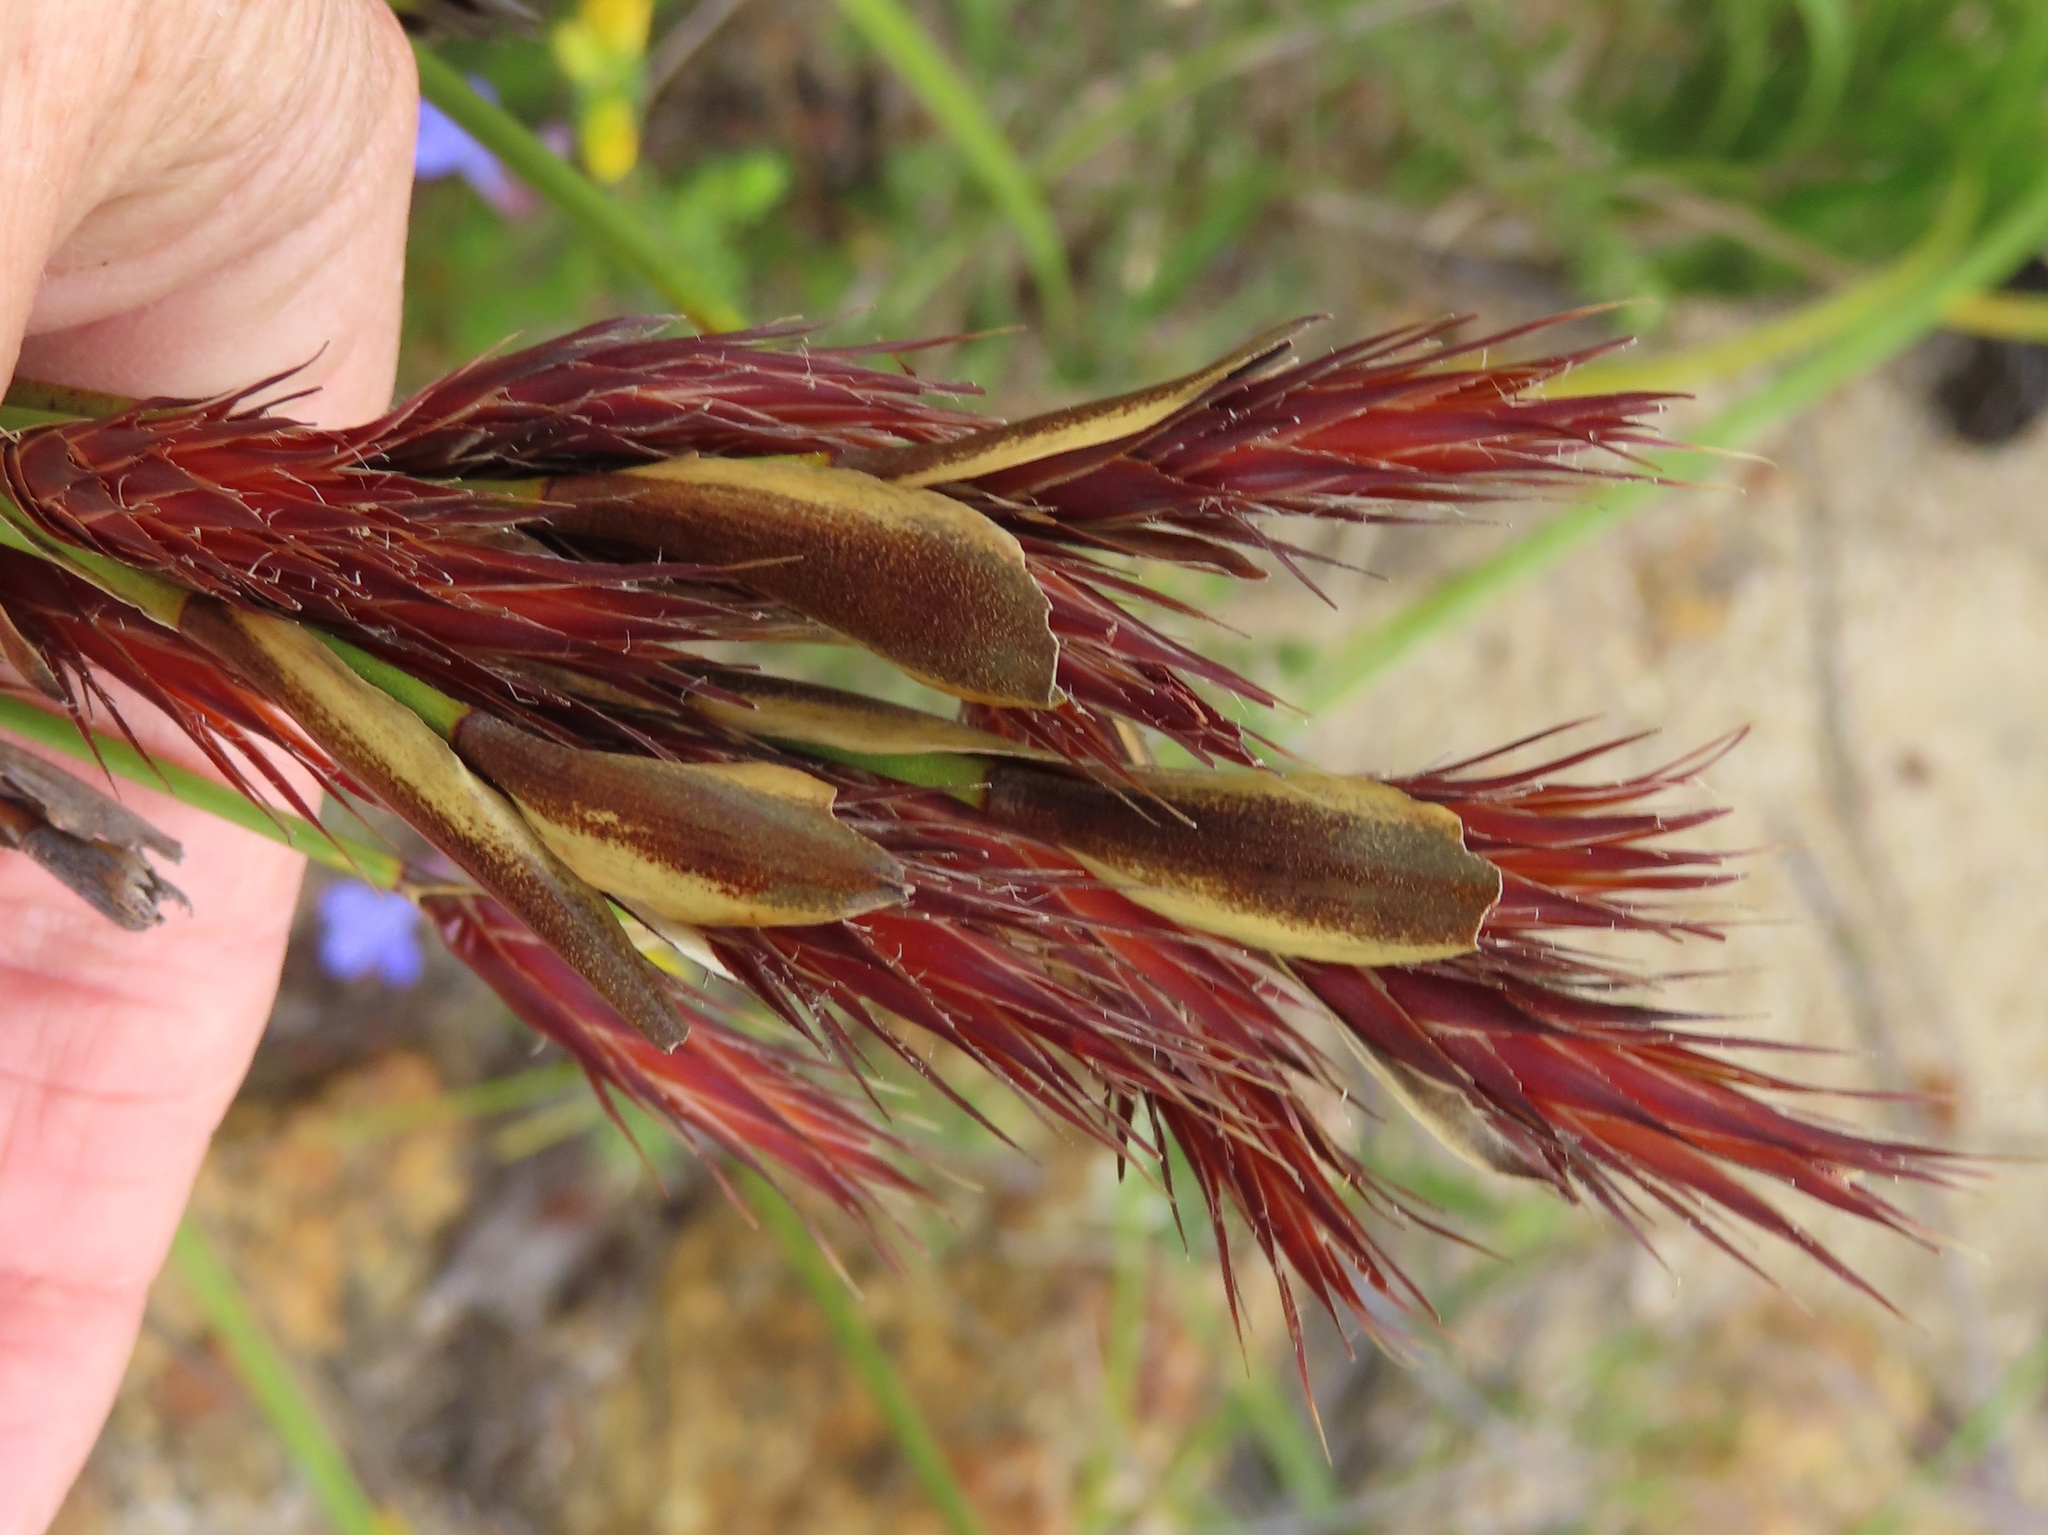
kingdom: Plantae
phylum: Tracheophyta
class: Liliopsida
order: Poales
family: Restionaceae
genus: Hypodiscus
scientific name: Hypodiscus aristatus
